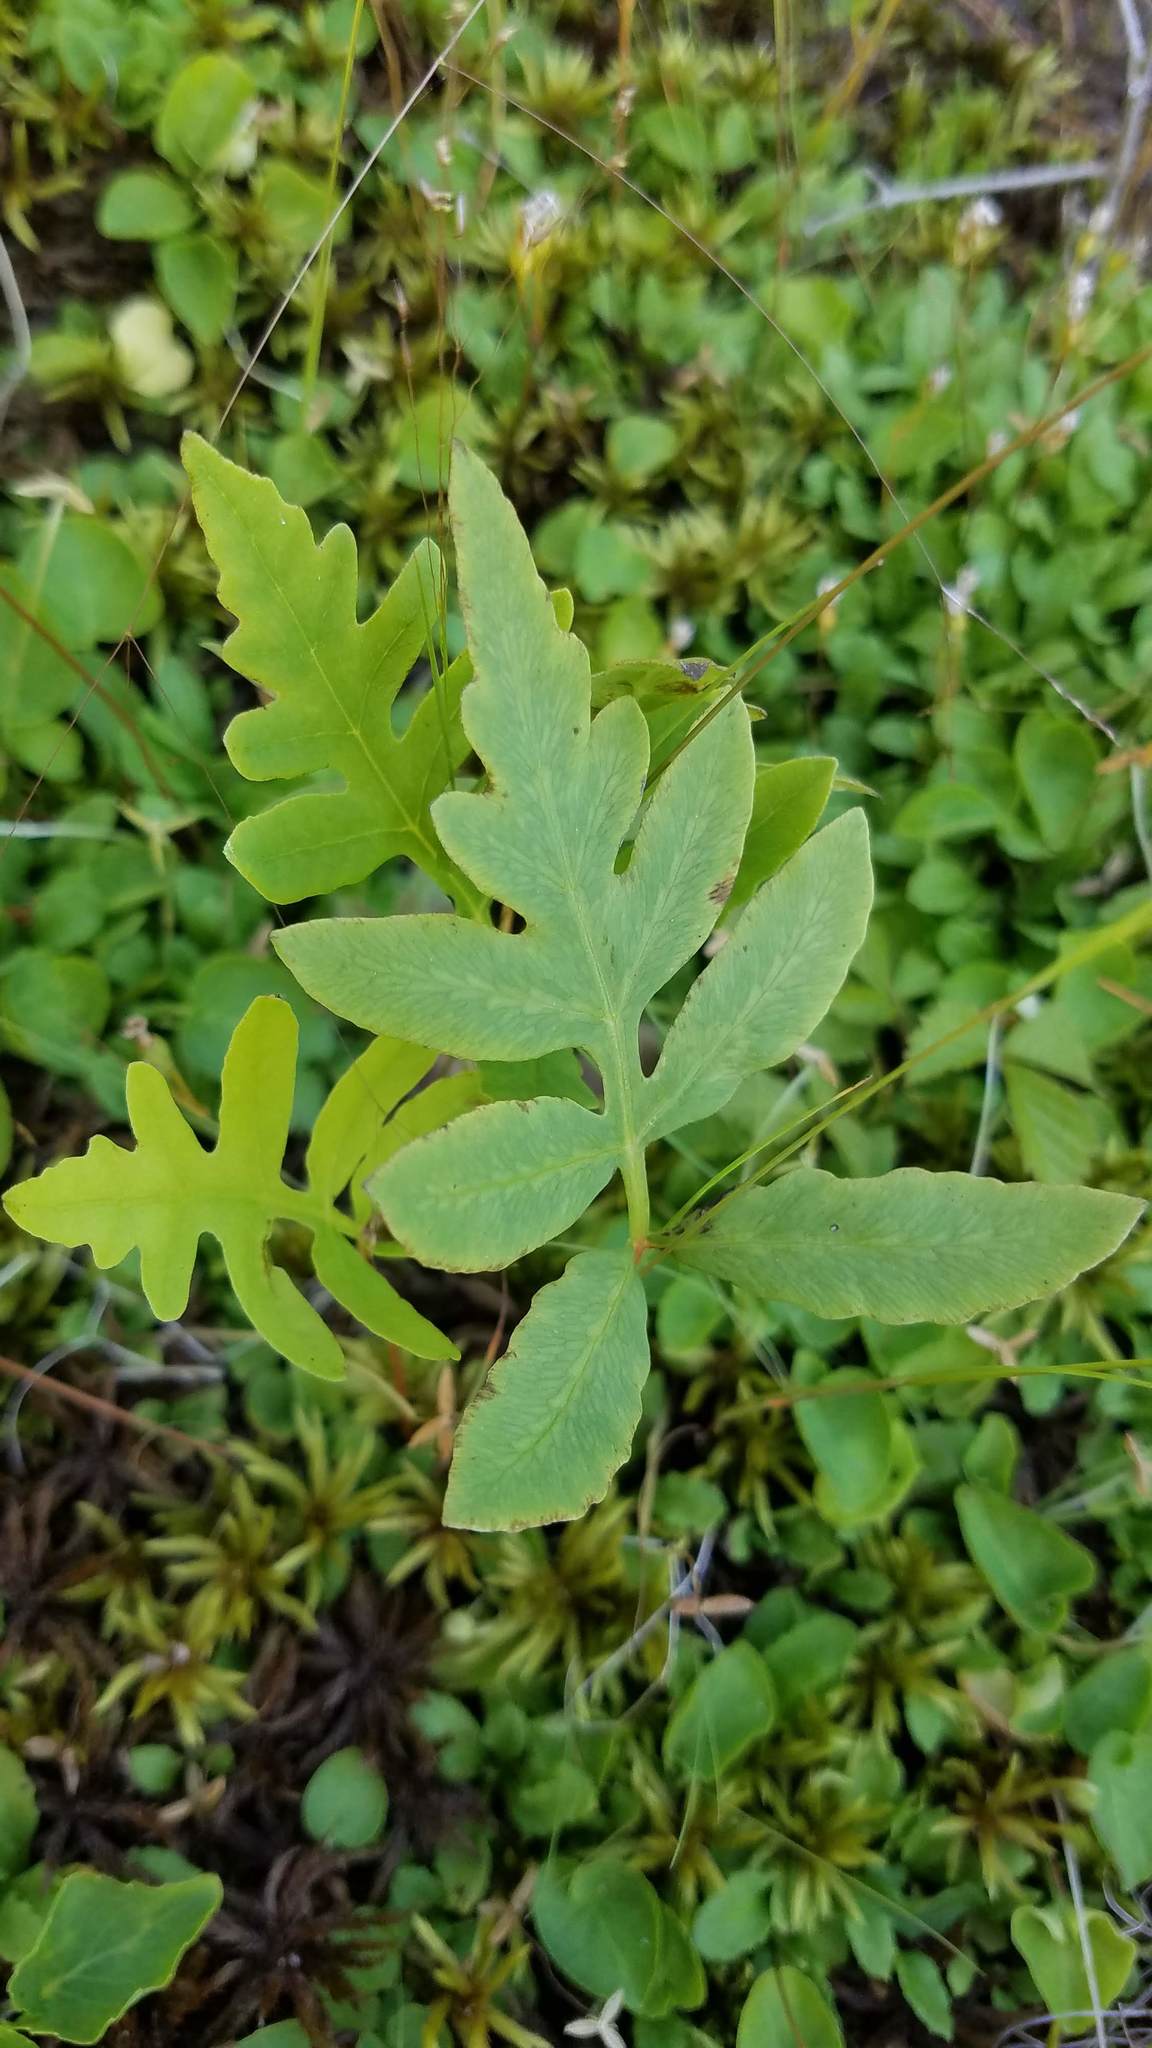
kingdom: Plantae
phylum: Tracheophyta
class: Polypodiopsida
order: Polypodiales
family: Onocleaceae
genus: Onoclea
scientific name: Onoclea sensibilis
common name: Sensitive fern
